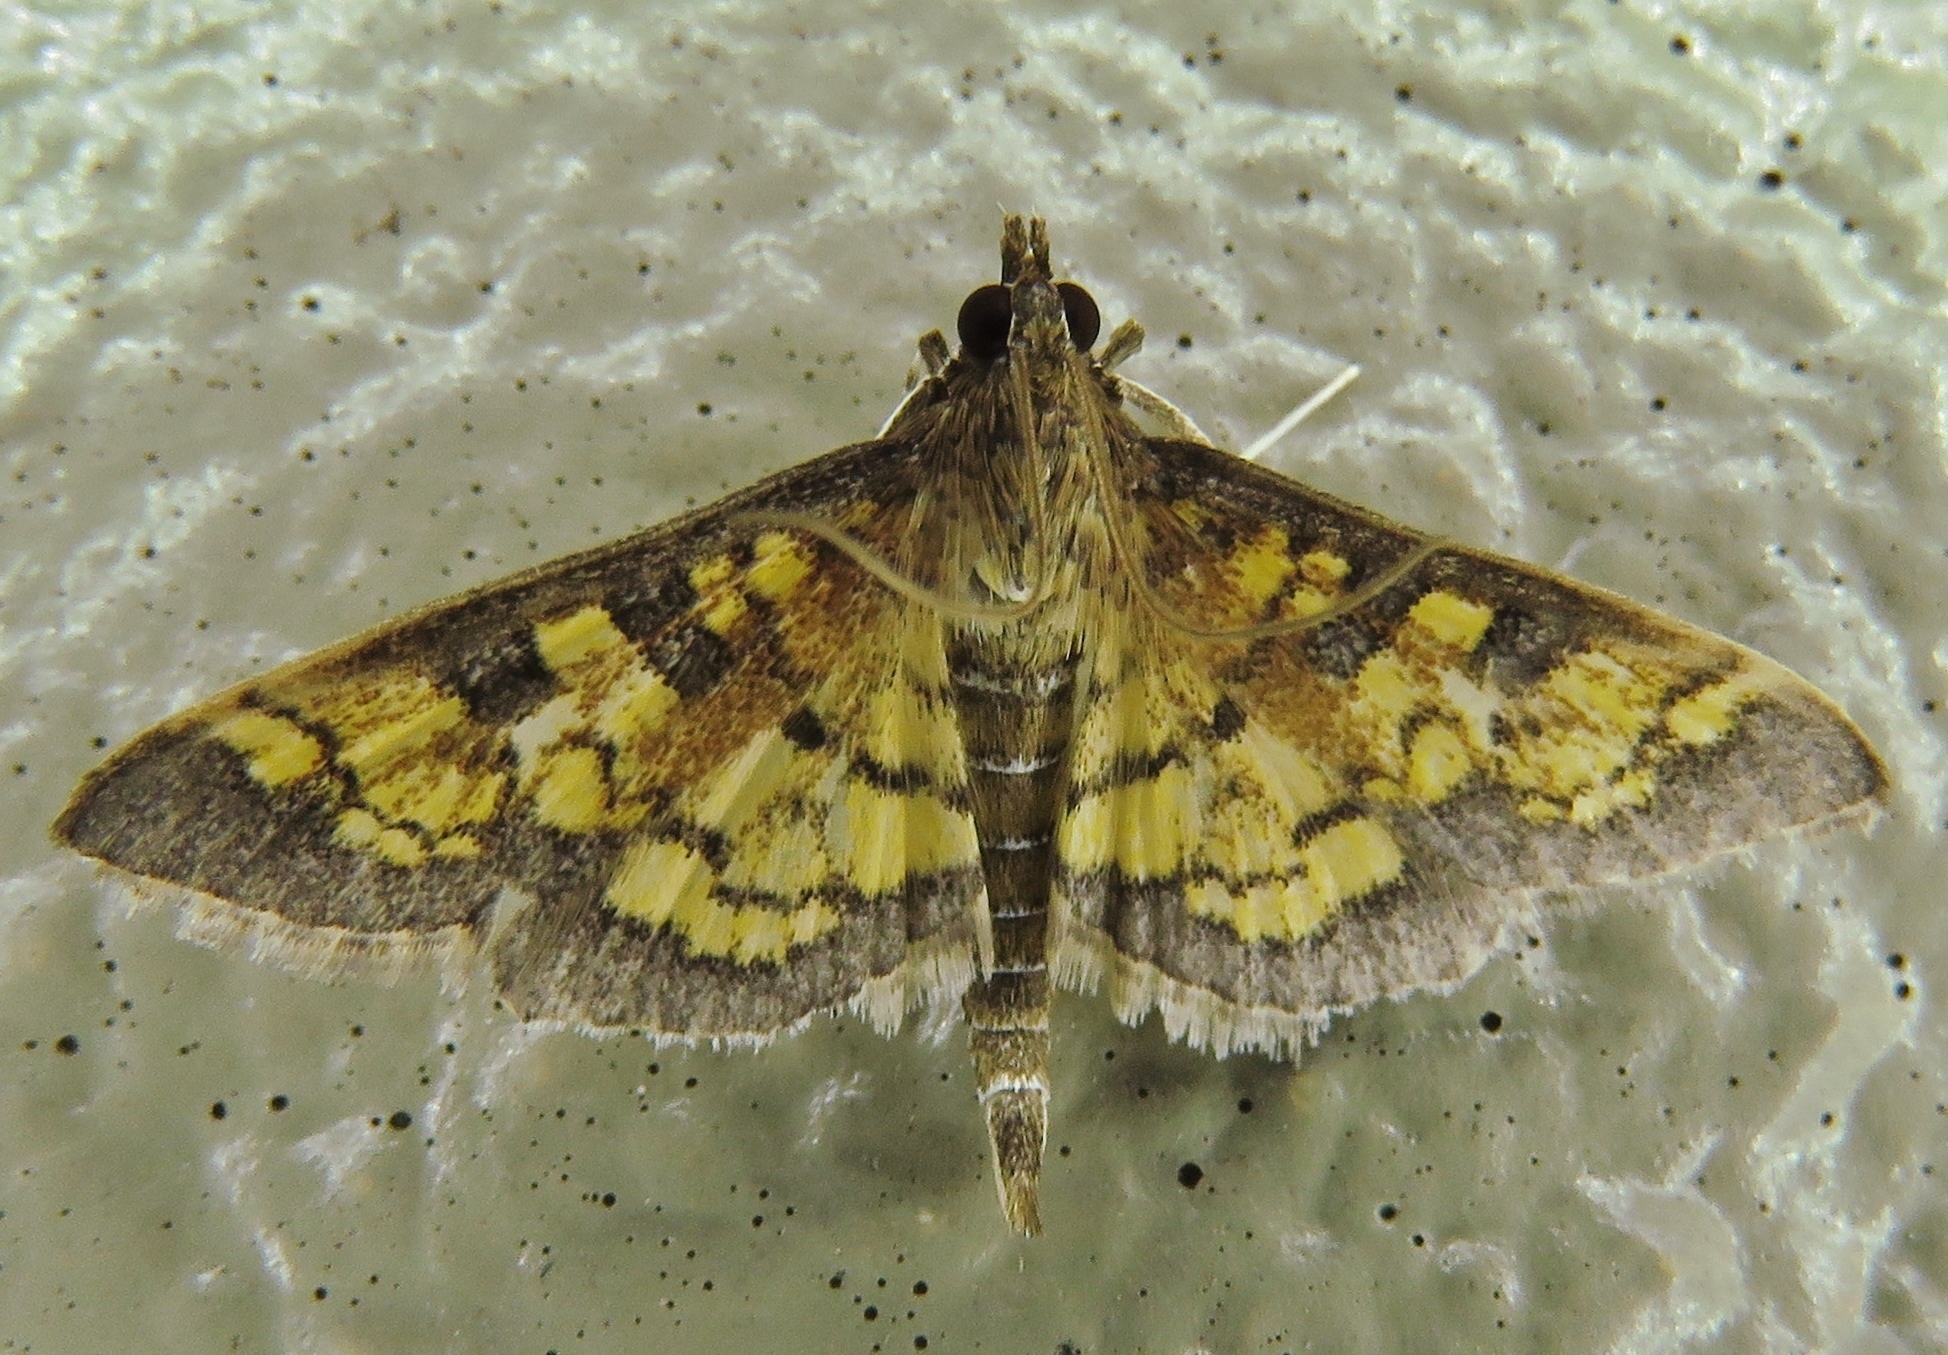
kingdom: Animalia
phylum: Arthropoda
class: Insecta
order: Lepidoptera
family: Crambidae
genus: Epipagis
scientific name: Epipagis adipaloides
